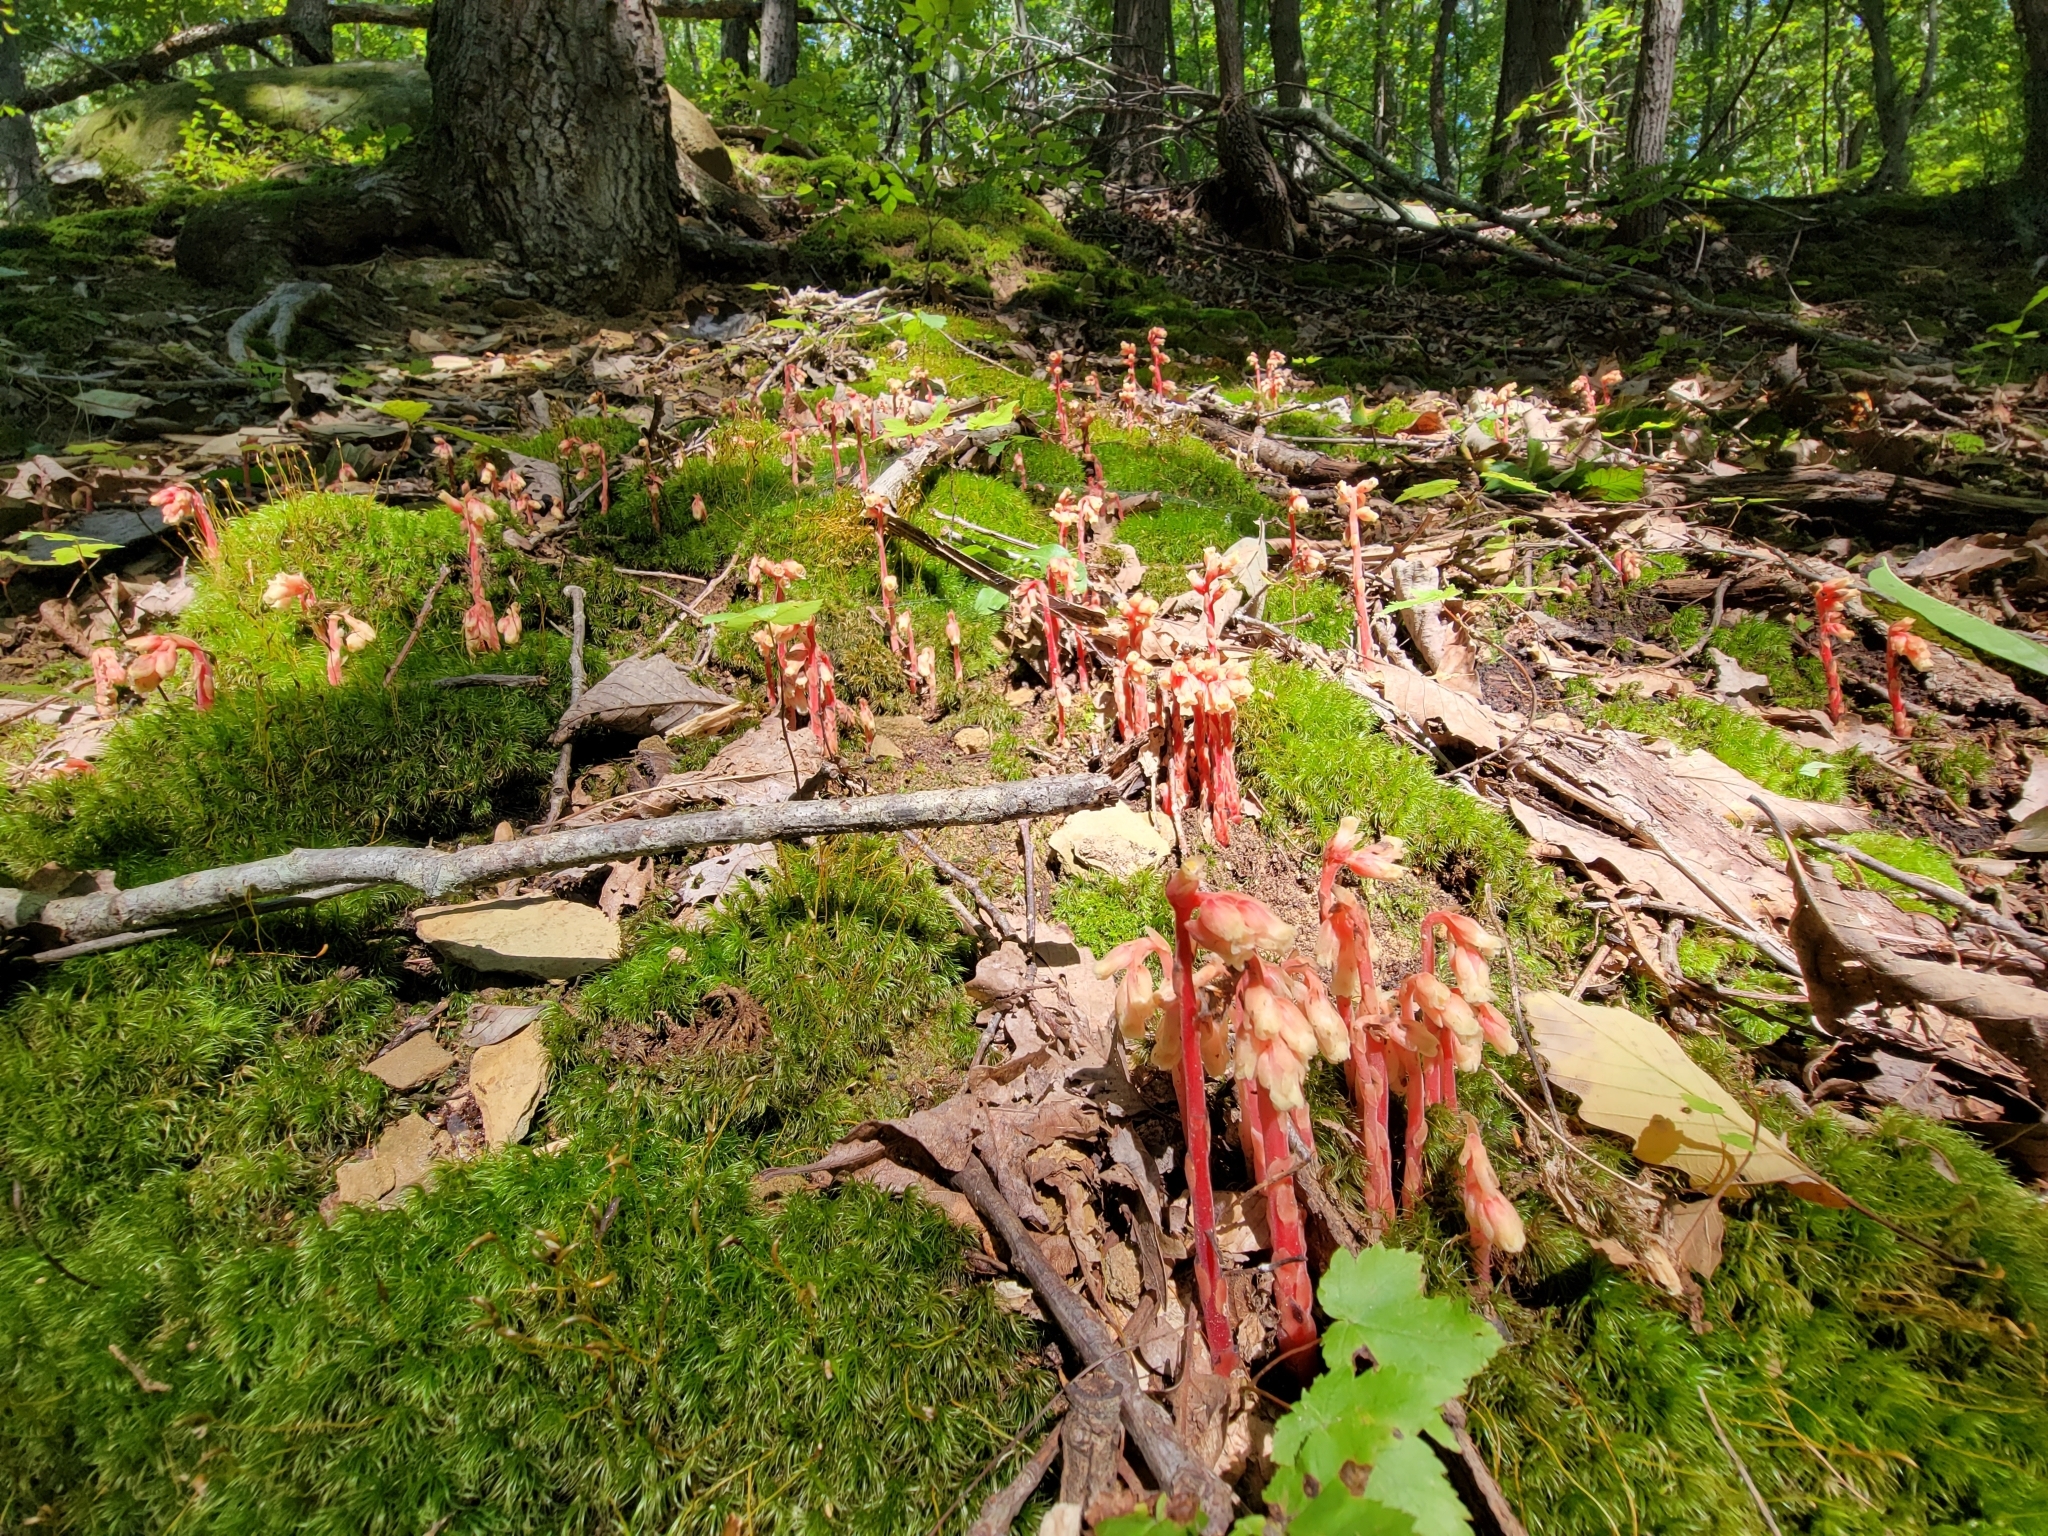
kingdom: Plantae
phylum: Tracheophyta
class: Magnoliopsida
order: Ericales
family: Ericaceae
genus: Hypopitys
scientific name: Hypopitys monotropa
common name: Yellow bird's-nest
